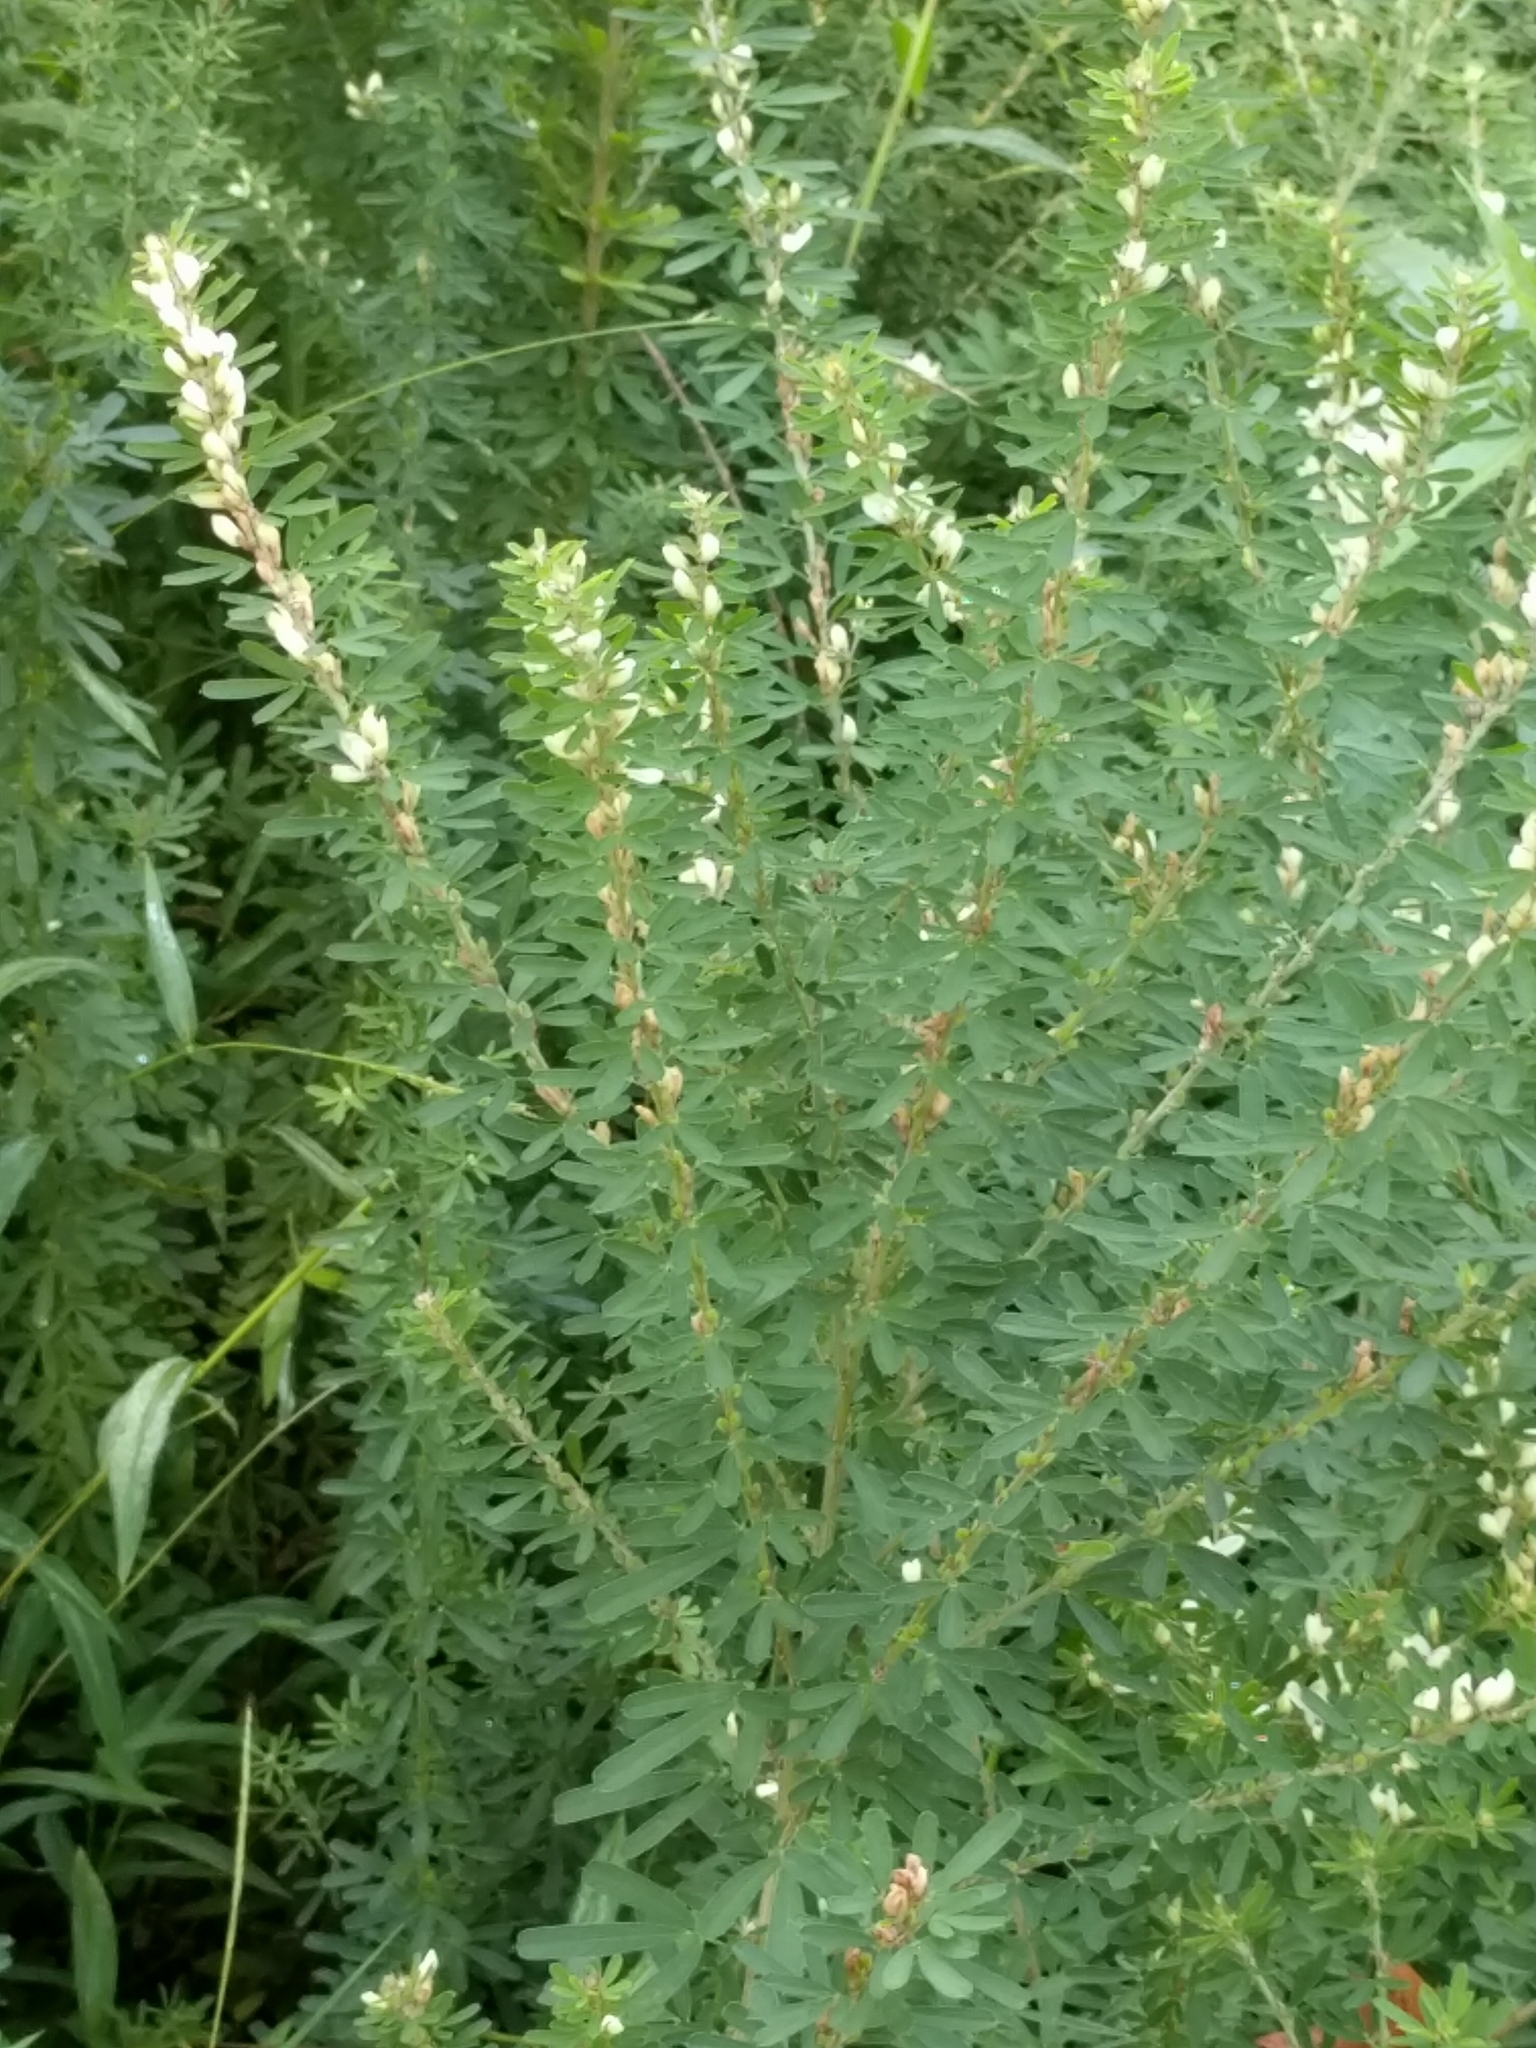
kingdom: Plantae
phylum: Tracheophyta
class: Magnoliopsida
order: Fabales
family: Fabaceae
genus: Lespedeza
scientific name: Lespedeza cuneata
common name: Chinese bush-clover
